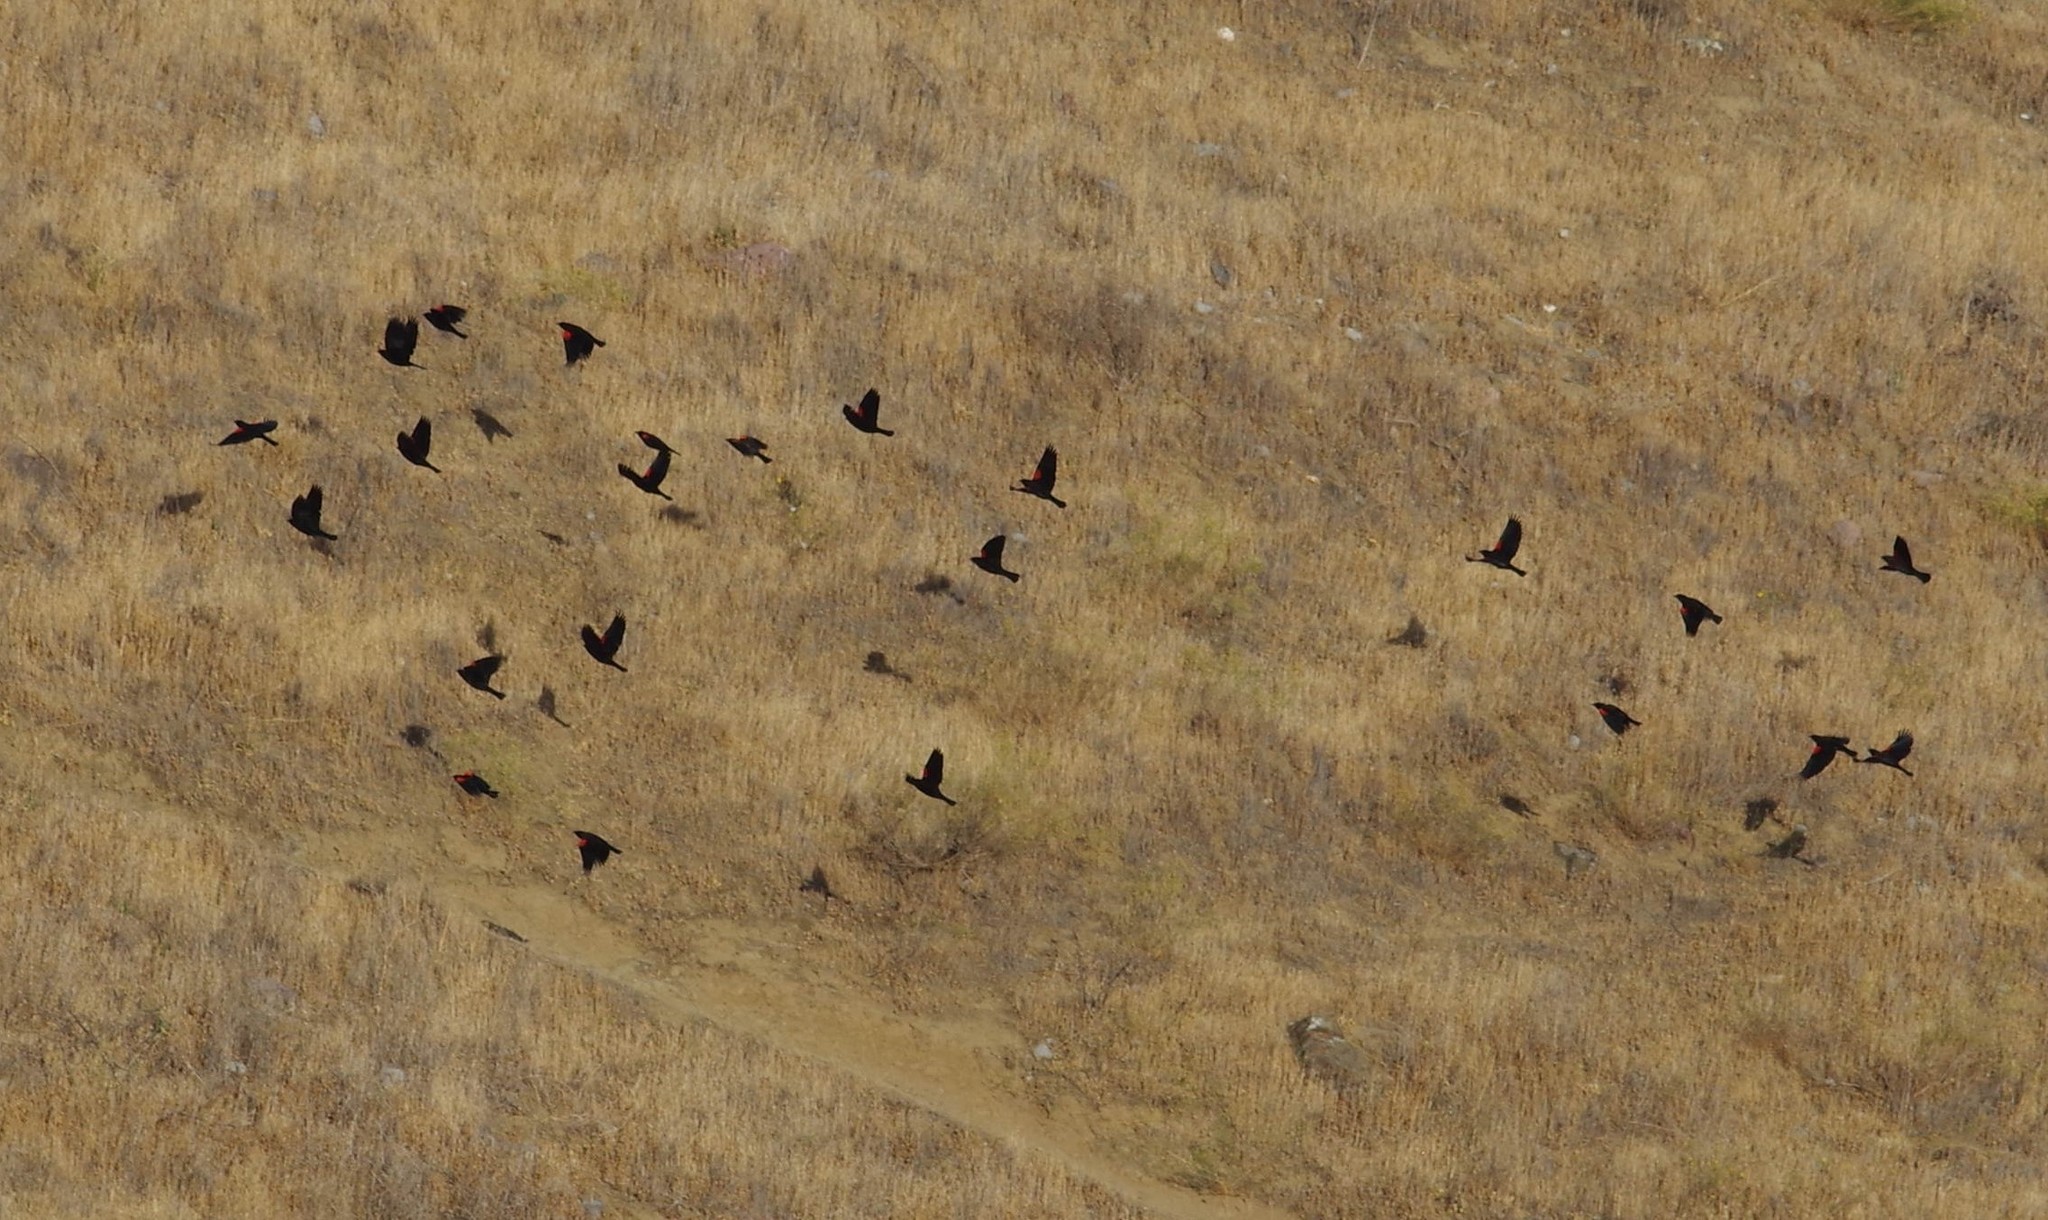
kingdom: Animalia
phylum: Chordata
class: Aves
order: Passeriformes
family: Icteridae
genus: Agelaius
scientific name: Agelaius phoeniceus
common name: Red-winged blackbird
